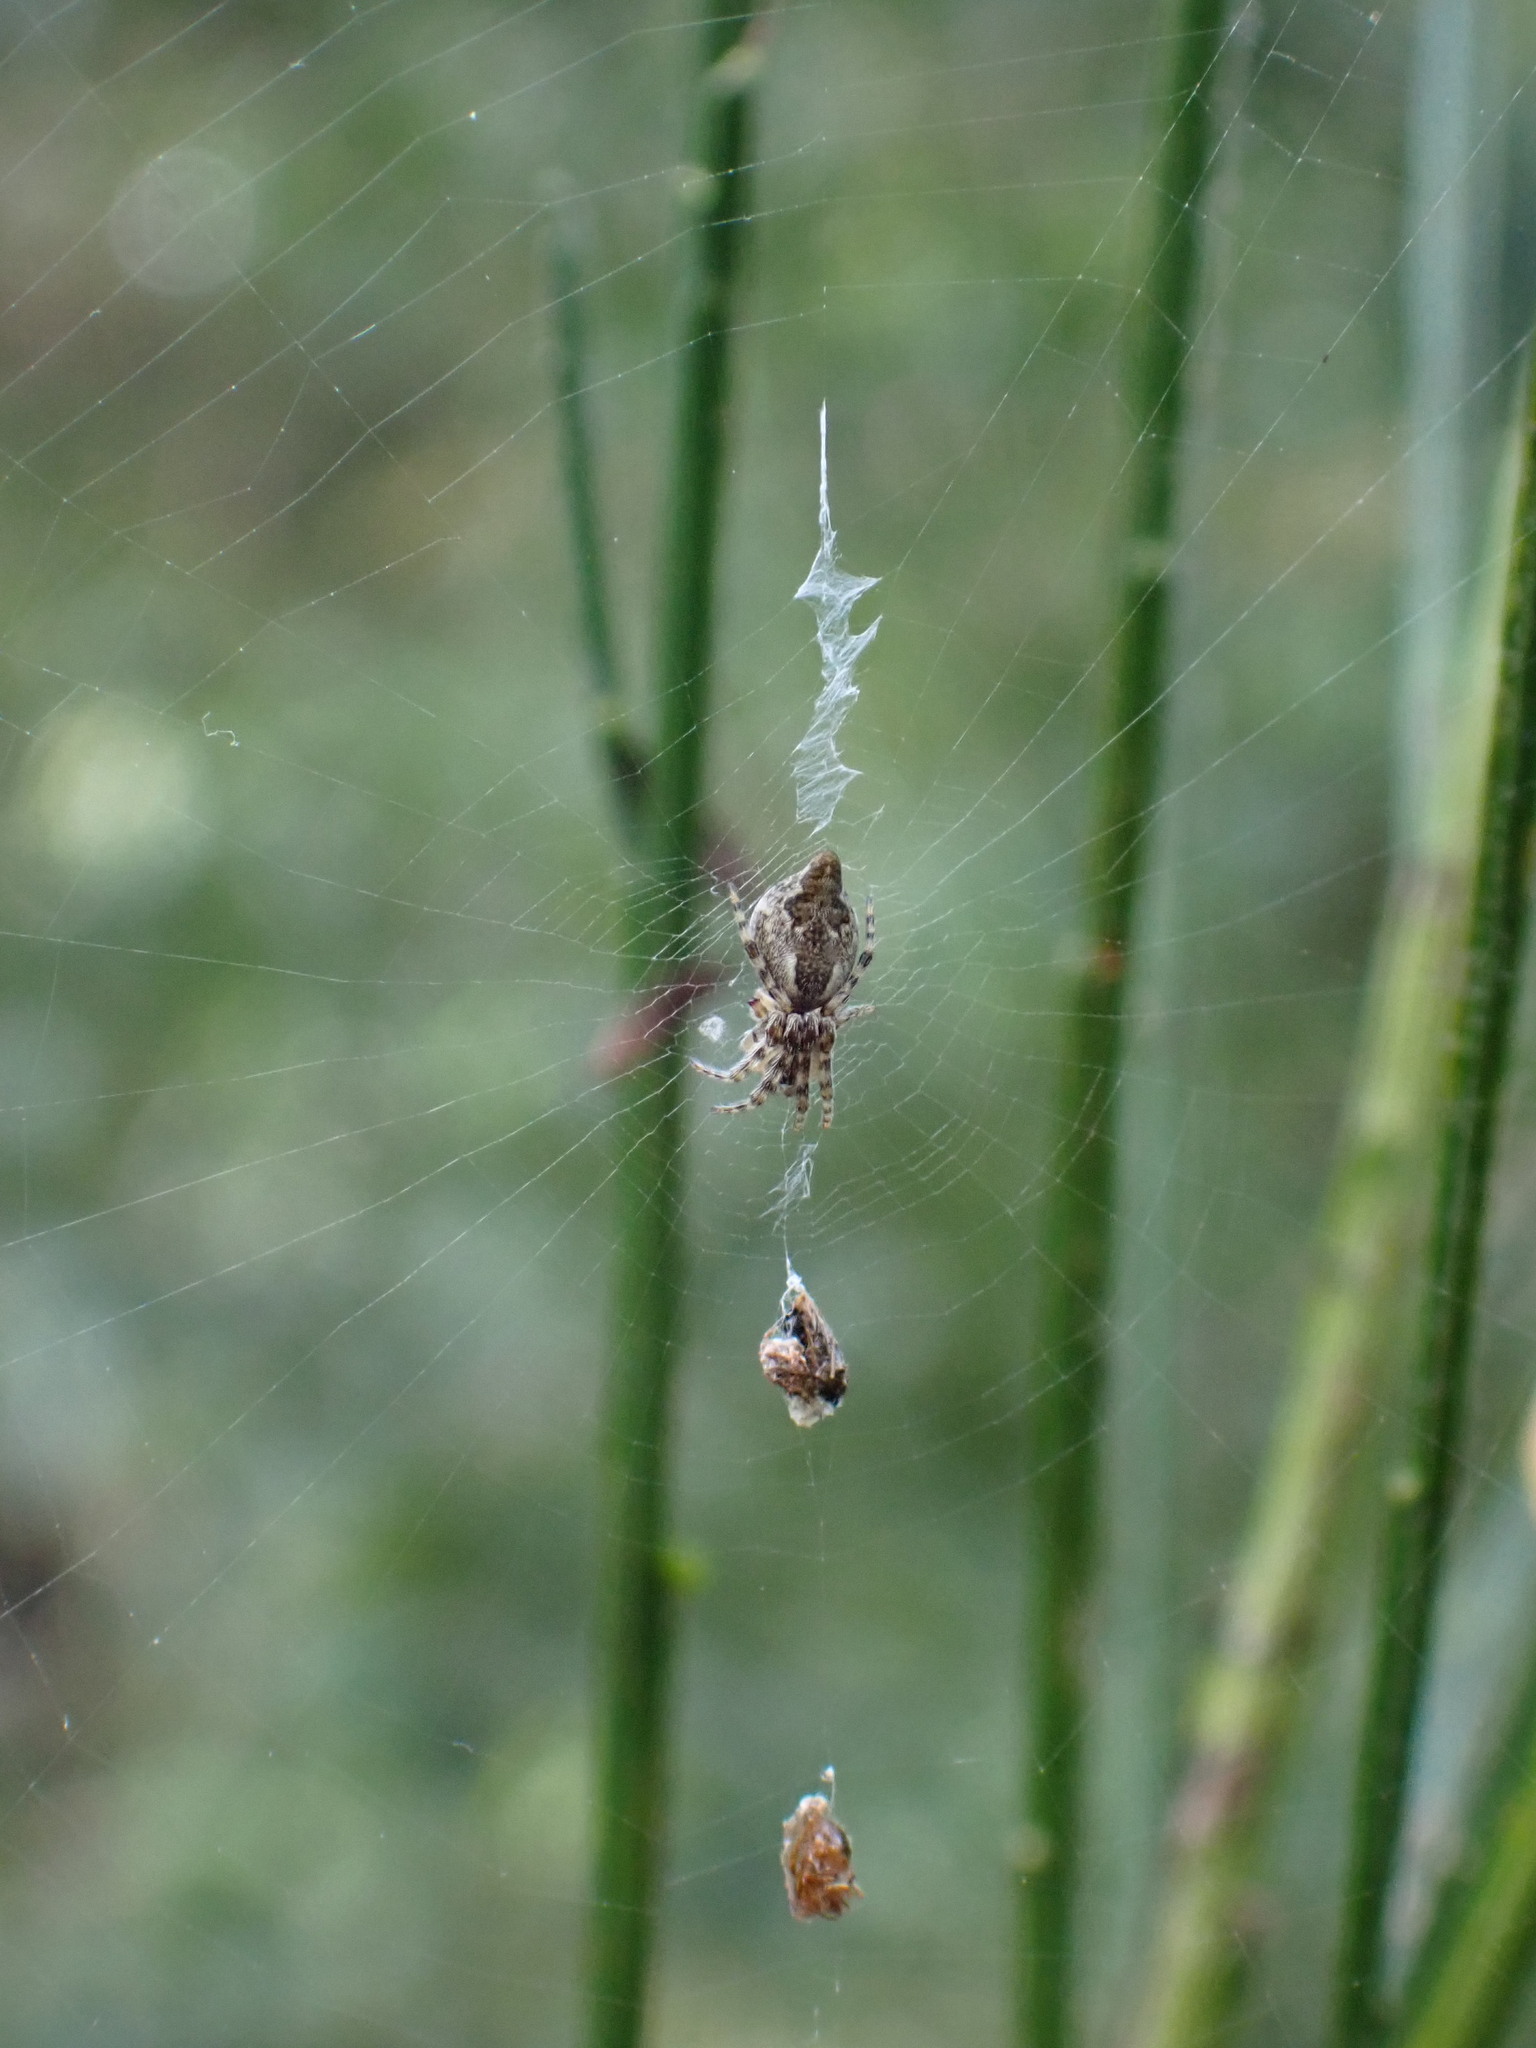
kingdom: Animalia
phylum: Arthropoda
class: Arachnida
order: Araneae
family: Araneidae
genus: Cyclosa
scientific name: Cyclosa conica
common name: Conical trashline orbweaver
